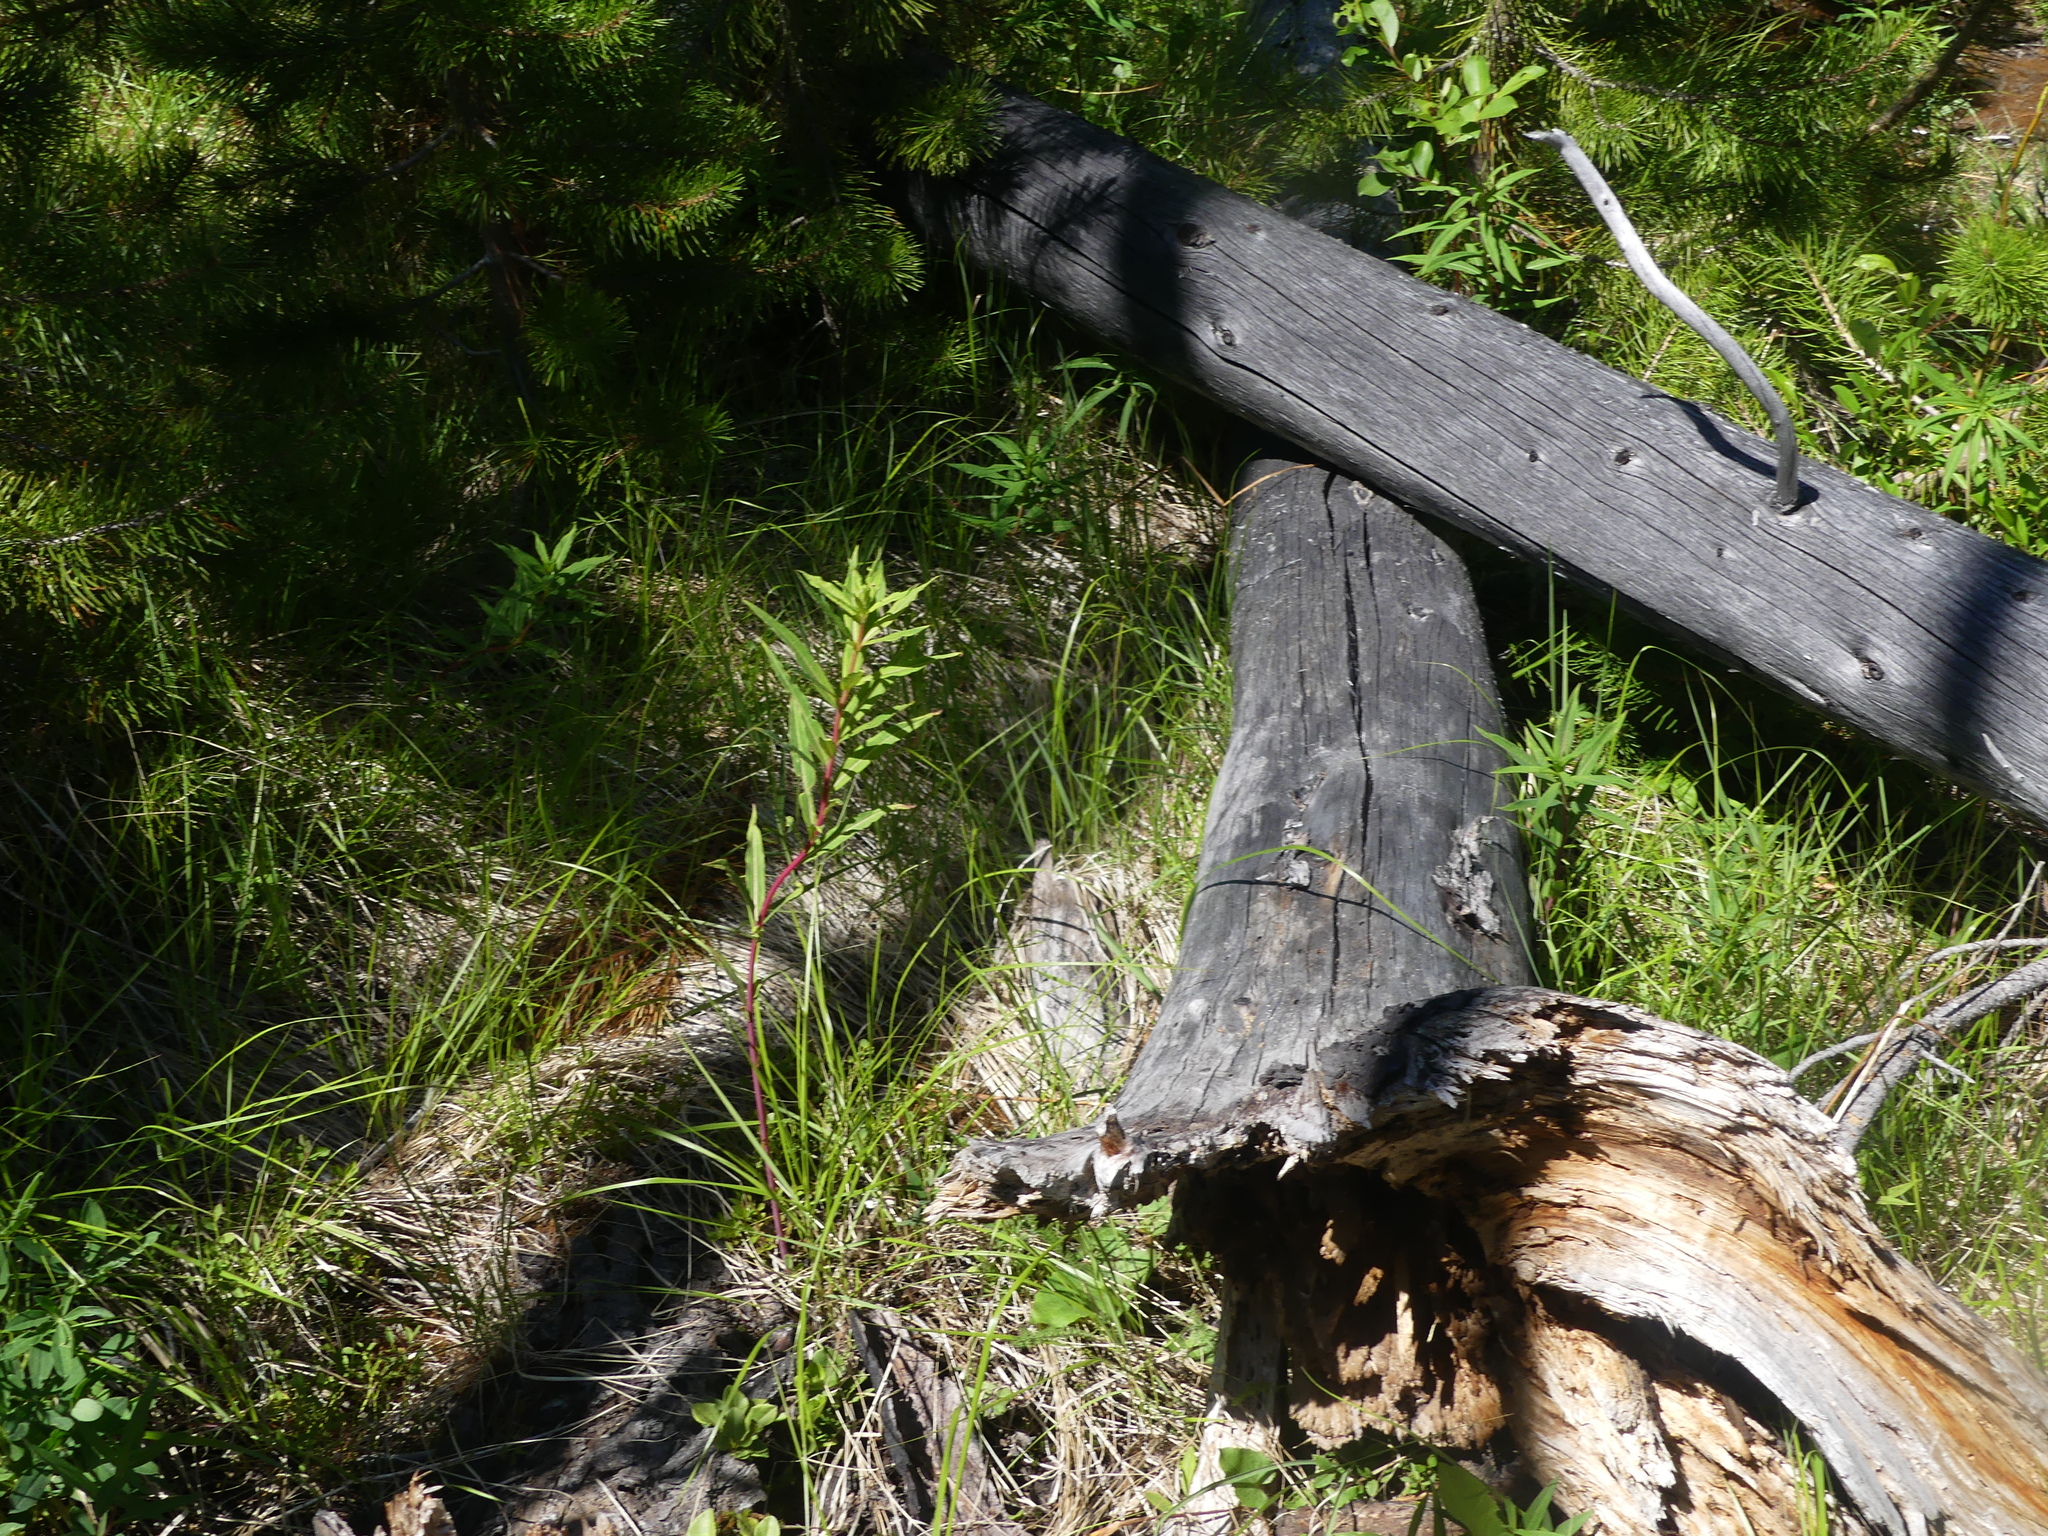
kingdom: Plantae
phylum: Tracheophyta
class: Magnoliopsida
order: Myrtales
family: Onagraceae
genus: Chamaenerion
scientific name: Chamaenerion angustifolium
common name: Fireweed
